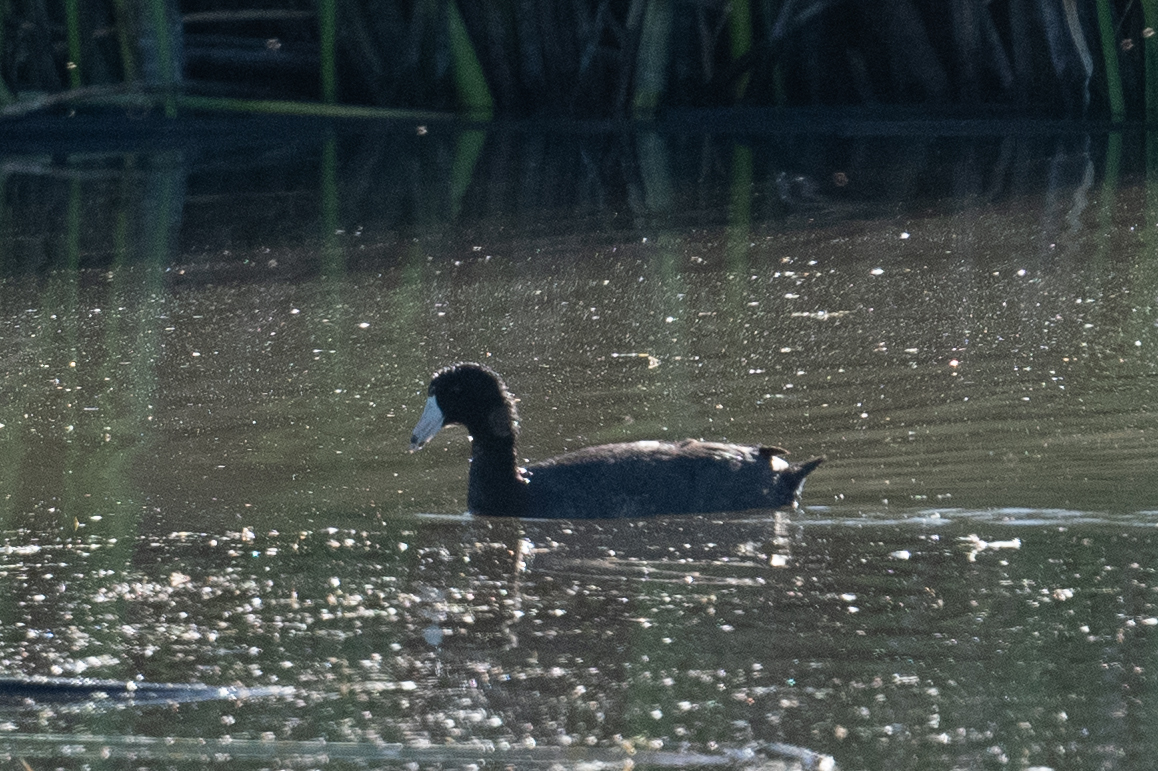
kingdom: Animalia
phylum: Chordata
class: Aves
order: Gruiformes
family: Rallidae
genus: Fulica
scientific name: Fulica americana
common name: American coot
